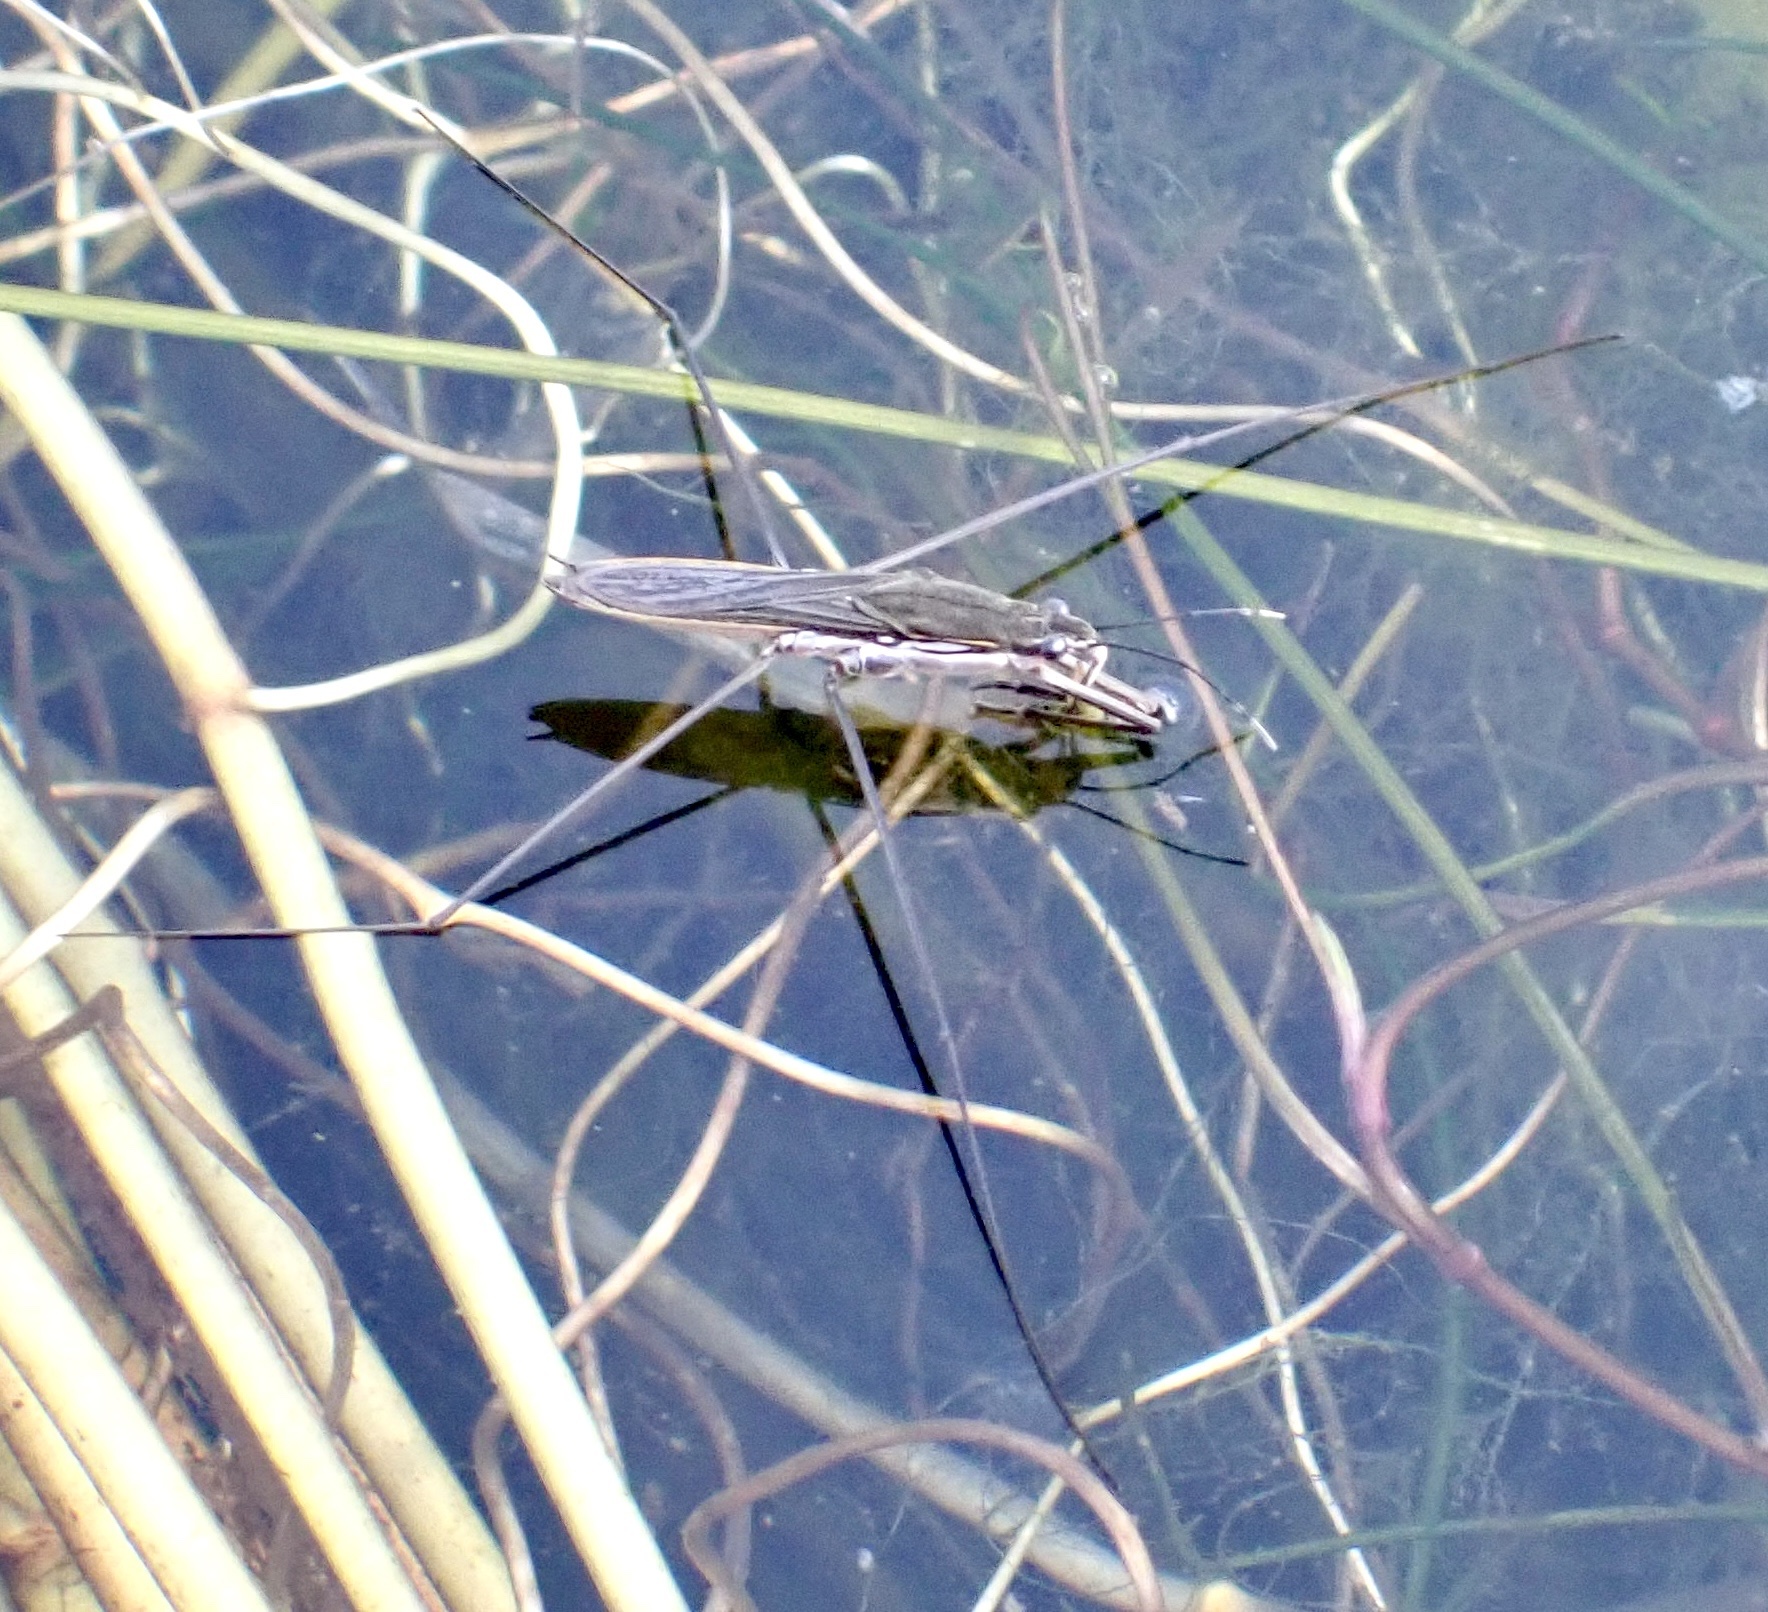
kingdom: Animalia
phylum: Arthropoda
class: Insecta
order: Hemiptera
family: Gerridae
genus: Aquarius
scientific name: Aquarius paludum
